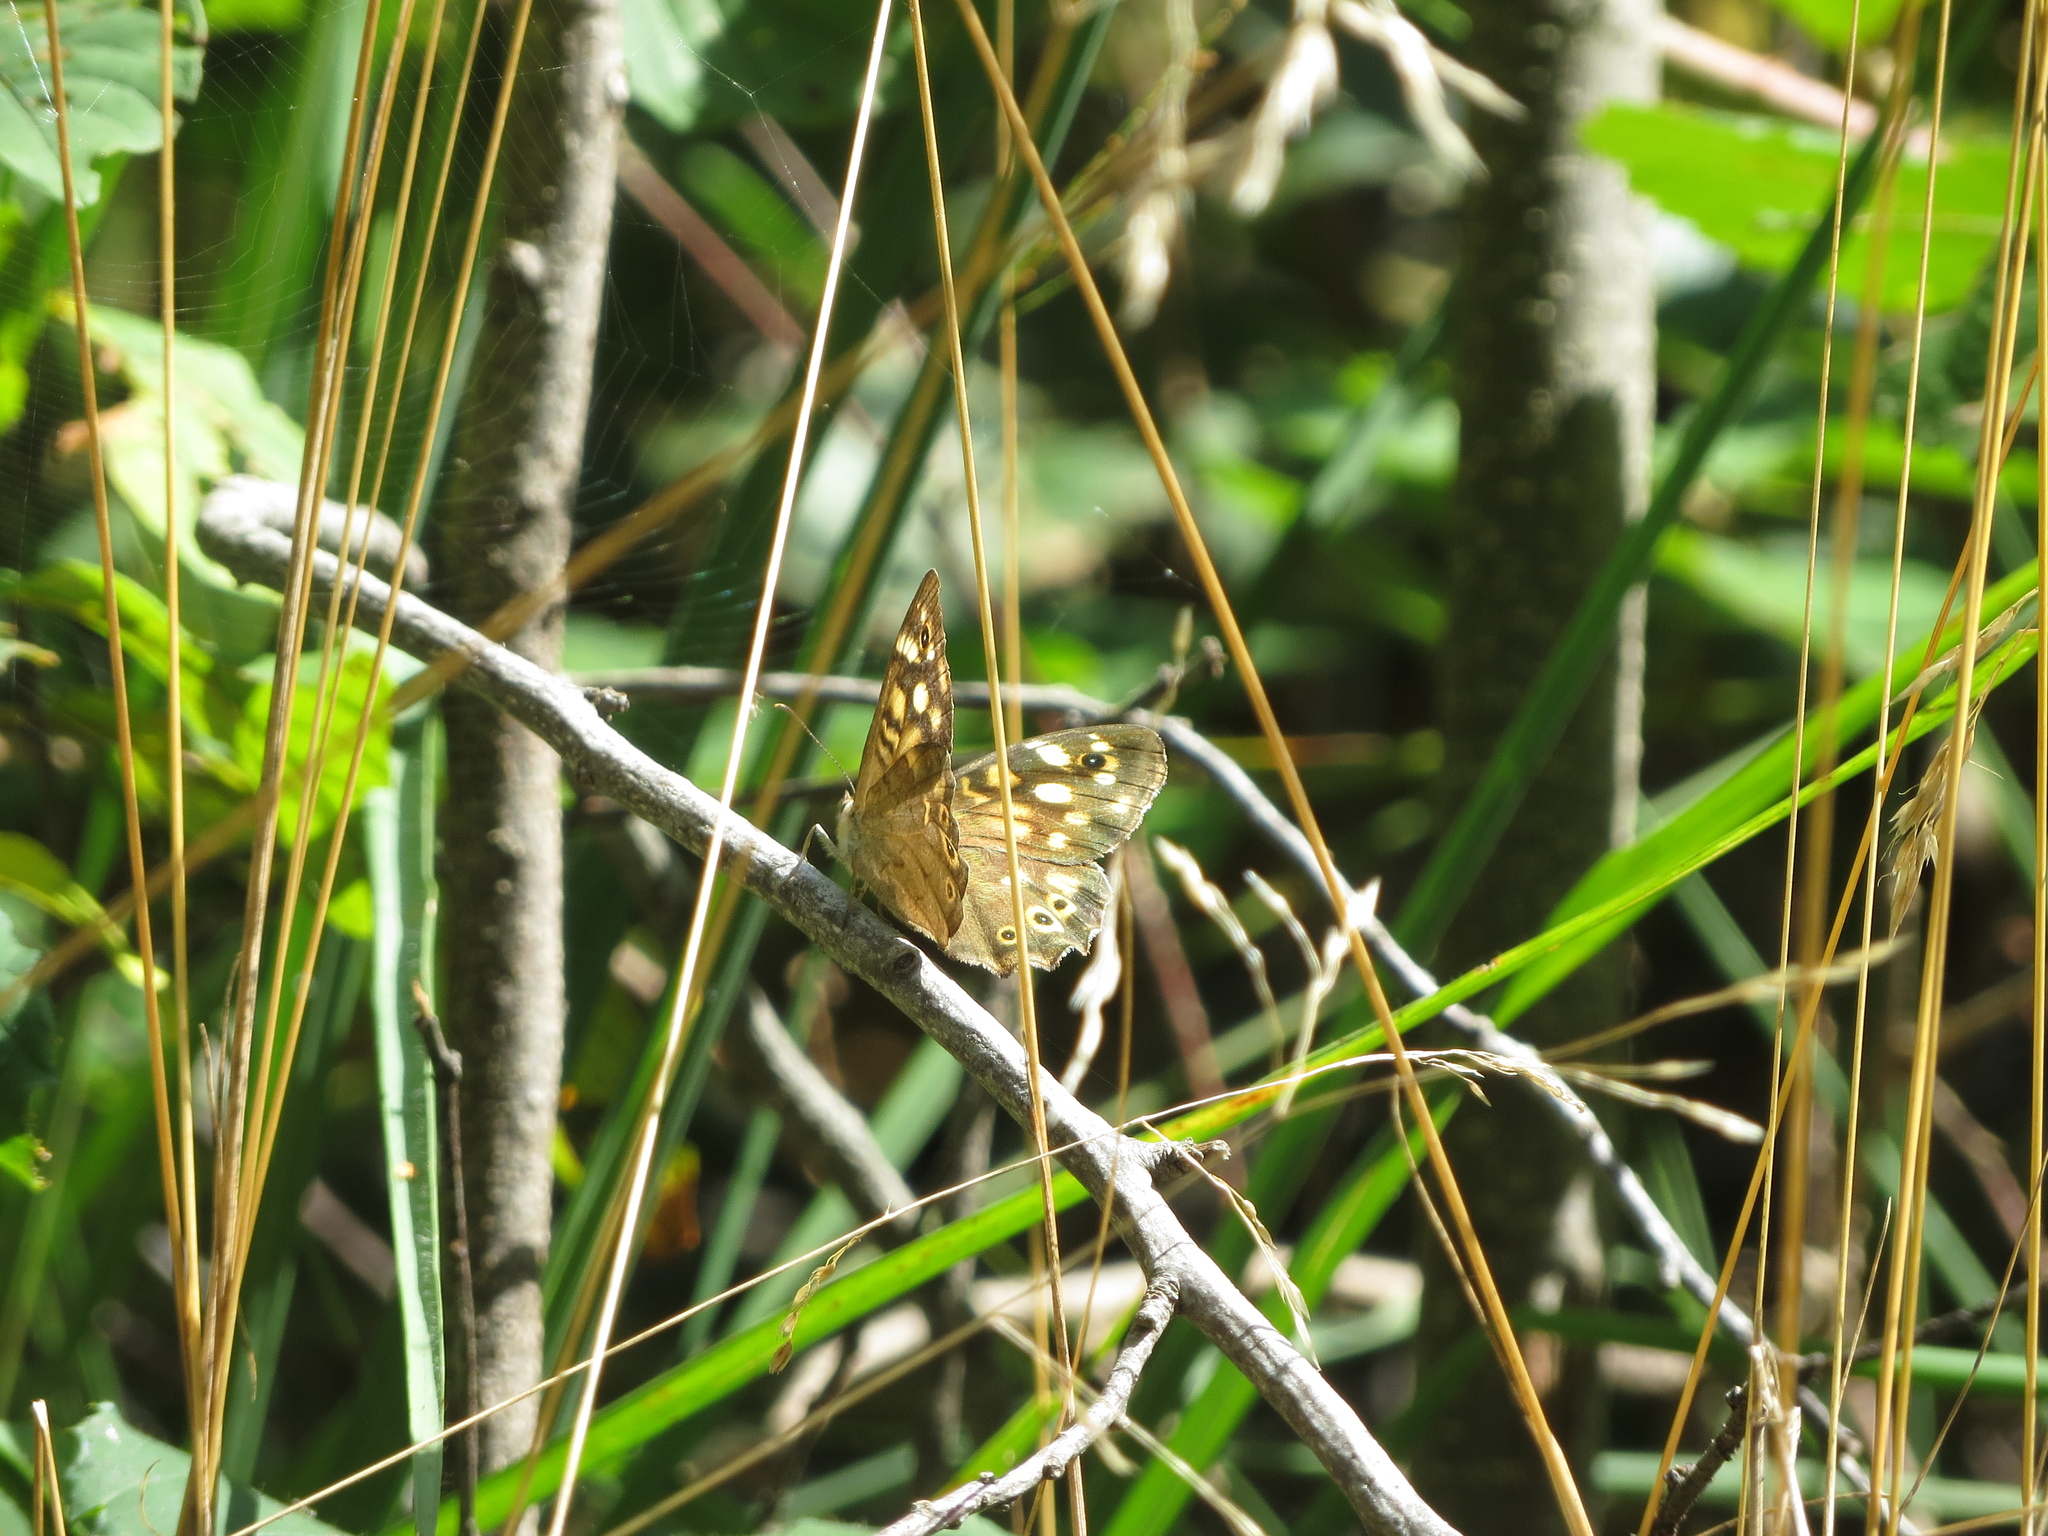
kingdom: Animalia
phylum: Arthropoda
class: Insecta
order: Lepidoptera
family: Nymphalidae
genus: Pararge
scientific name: Pararge aegeria
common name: Speckled wood
